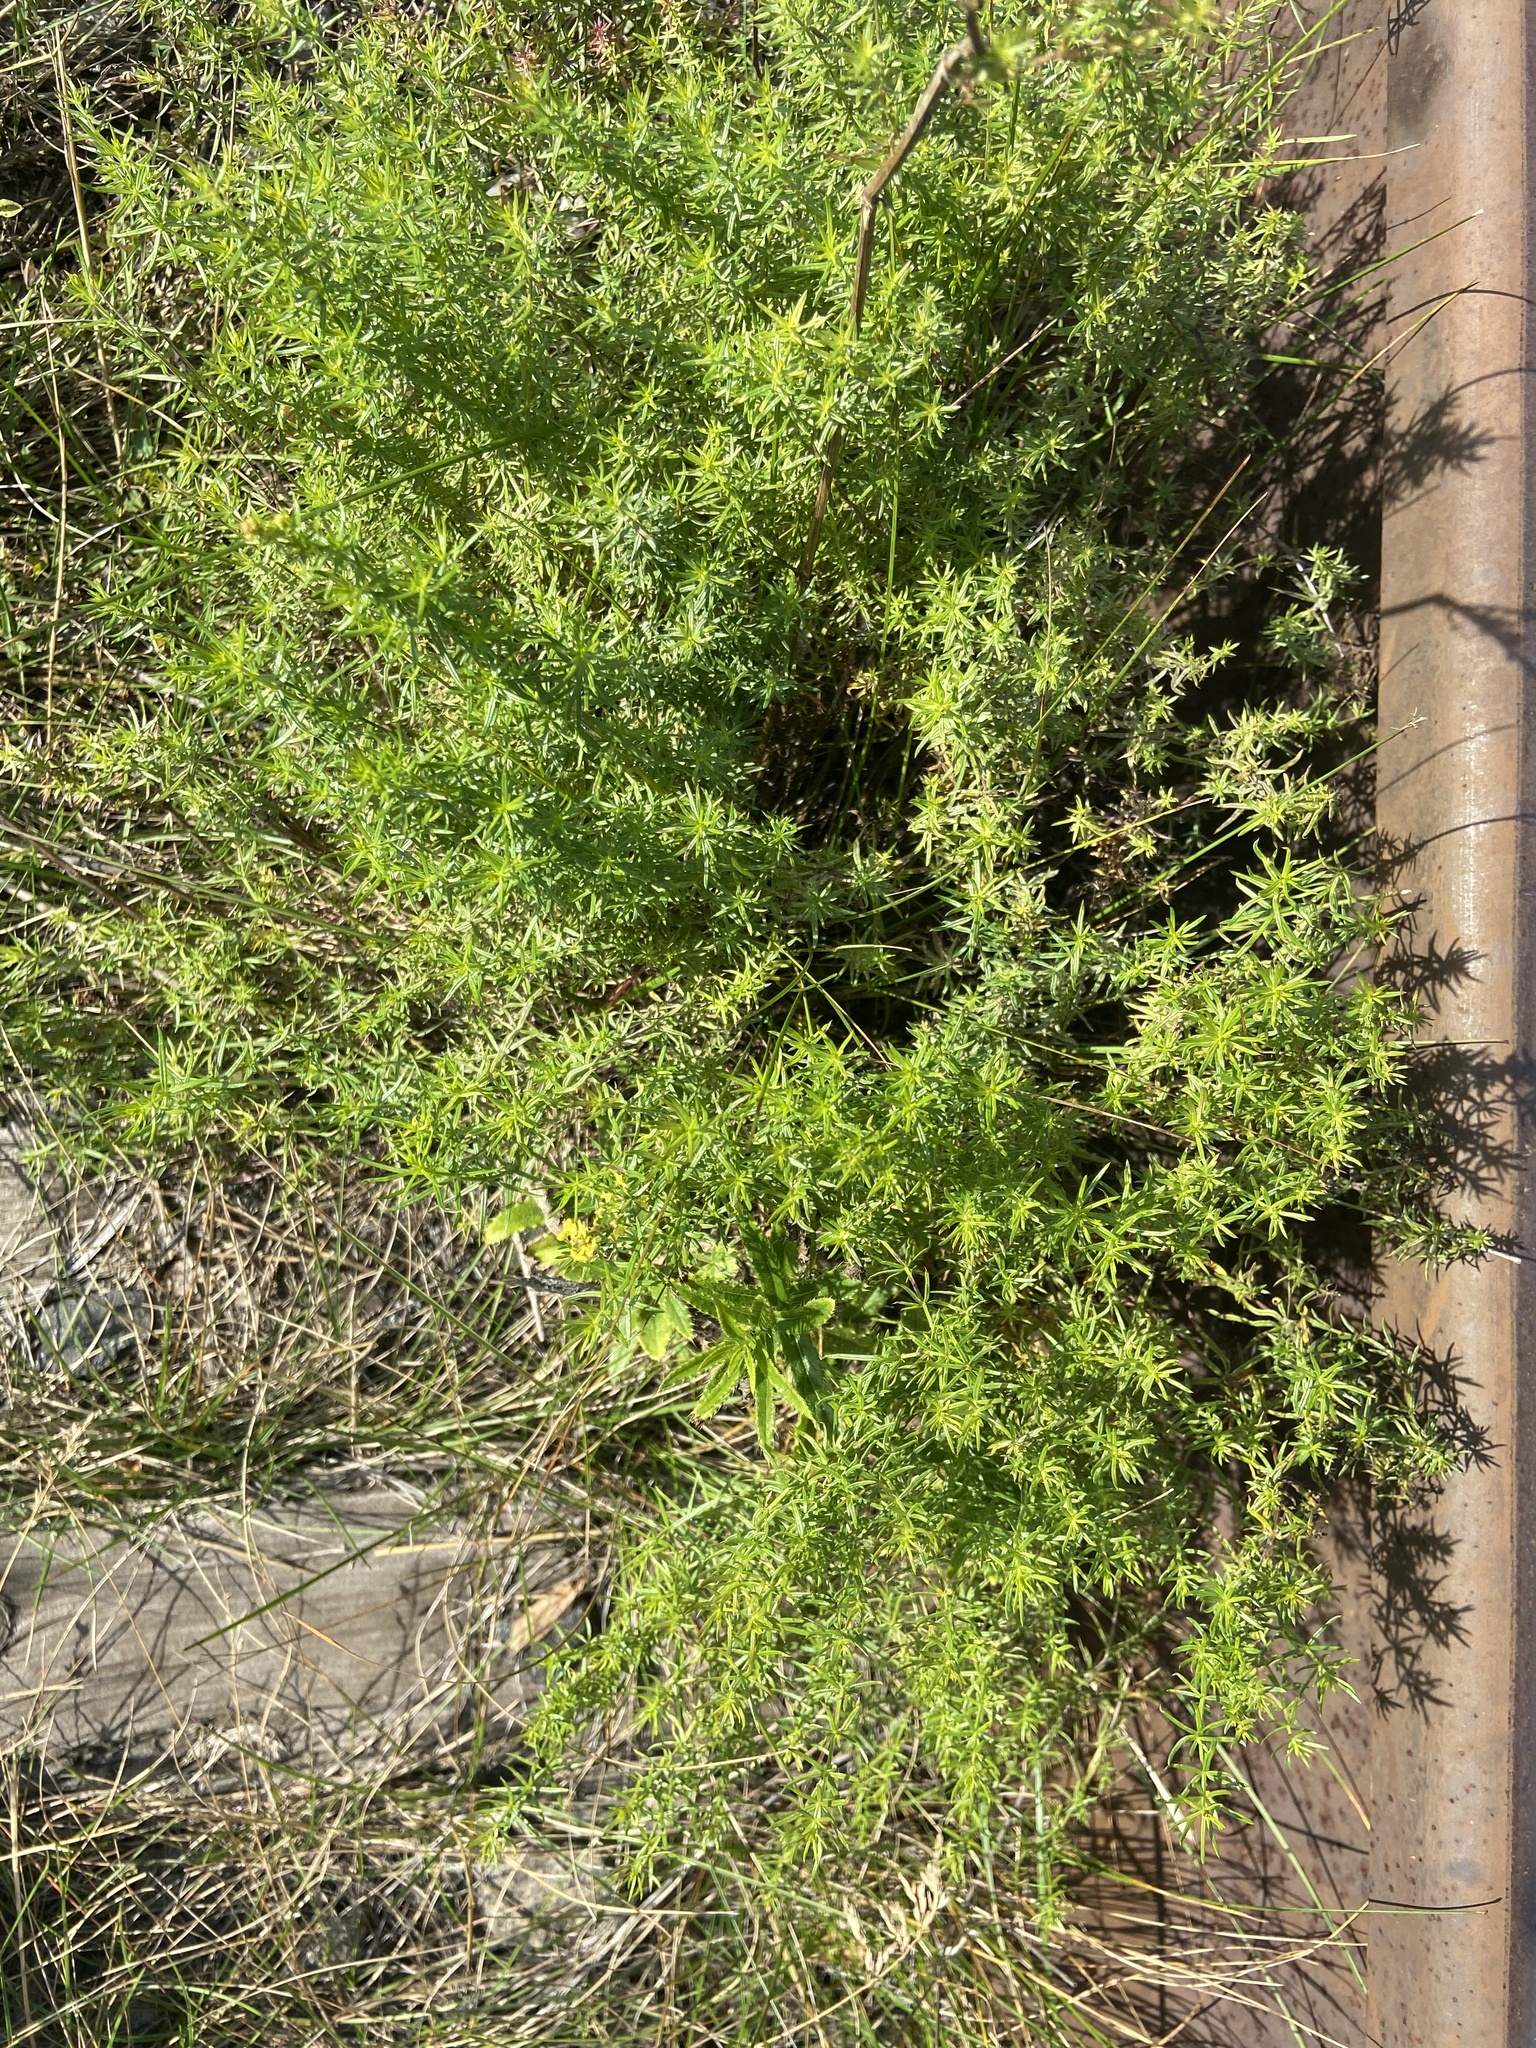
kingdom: Plantae
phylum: Tracheophyta
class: Magnoliopsida
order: Gentianales
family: Rubiaceae
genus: Galium
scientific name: Galium verum
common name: Lady's bedstraw
